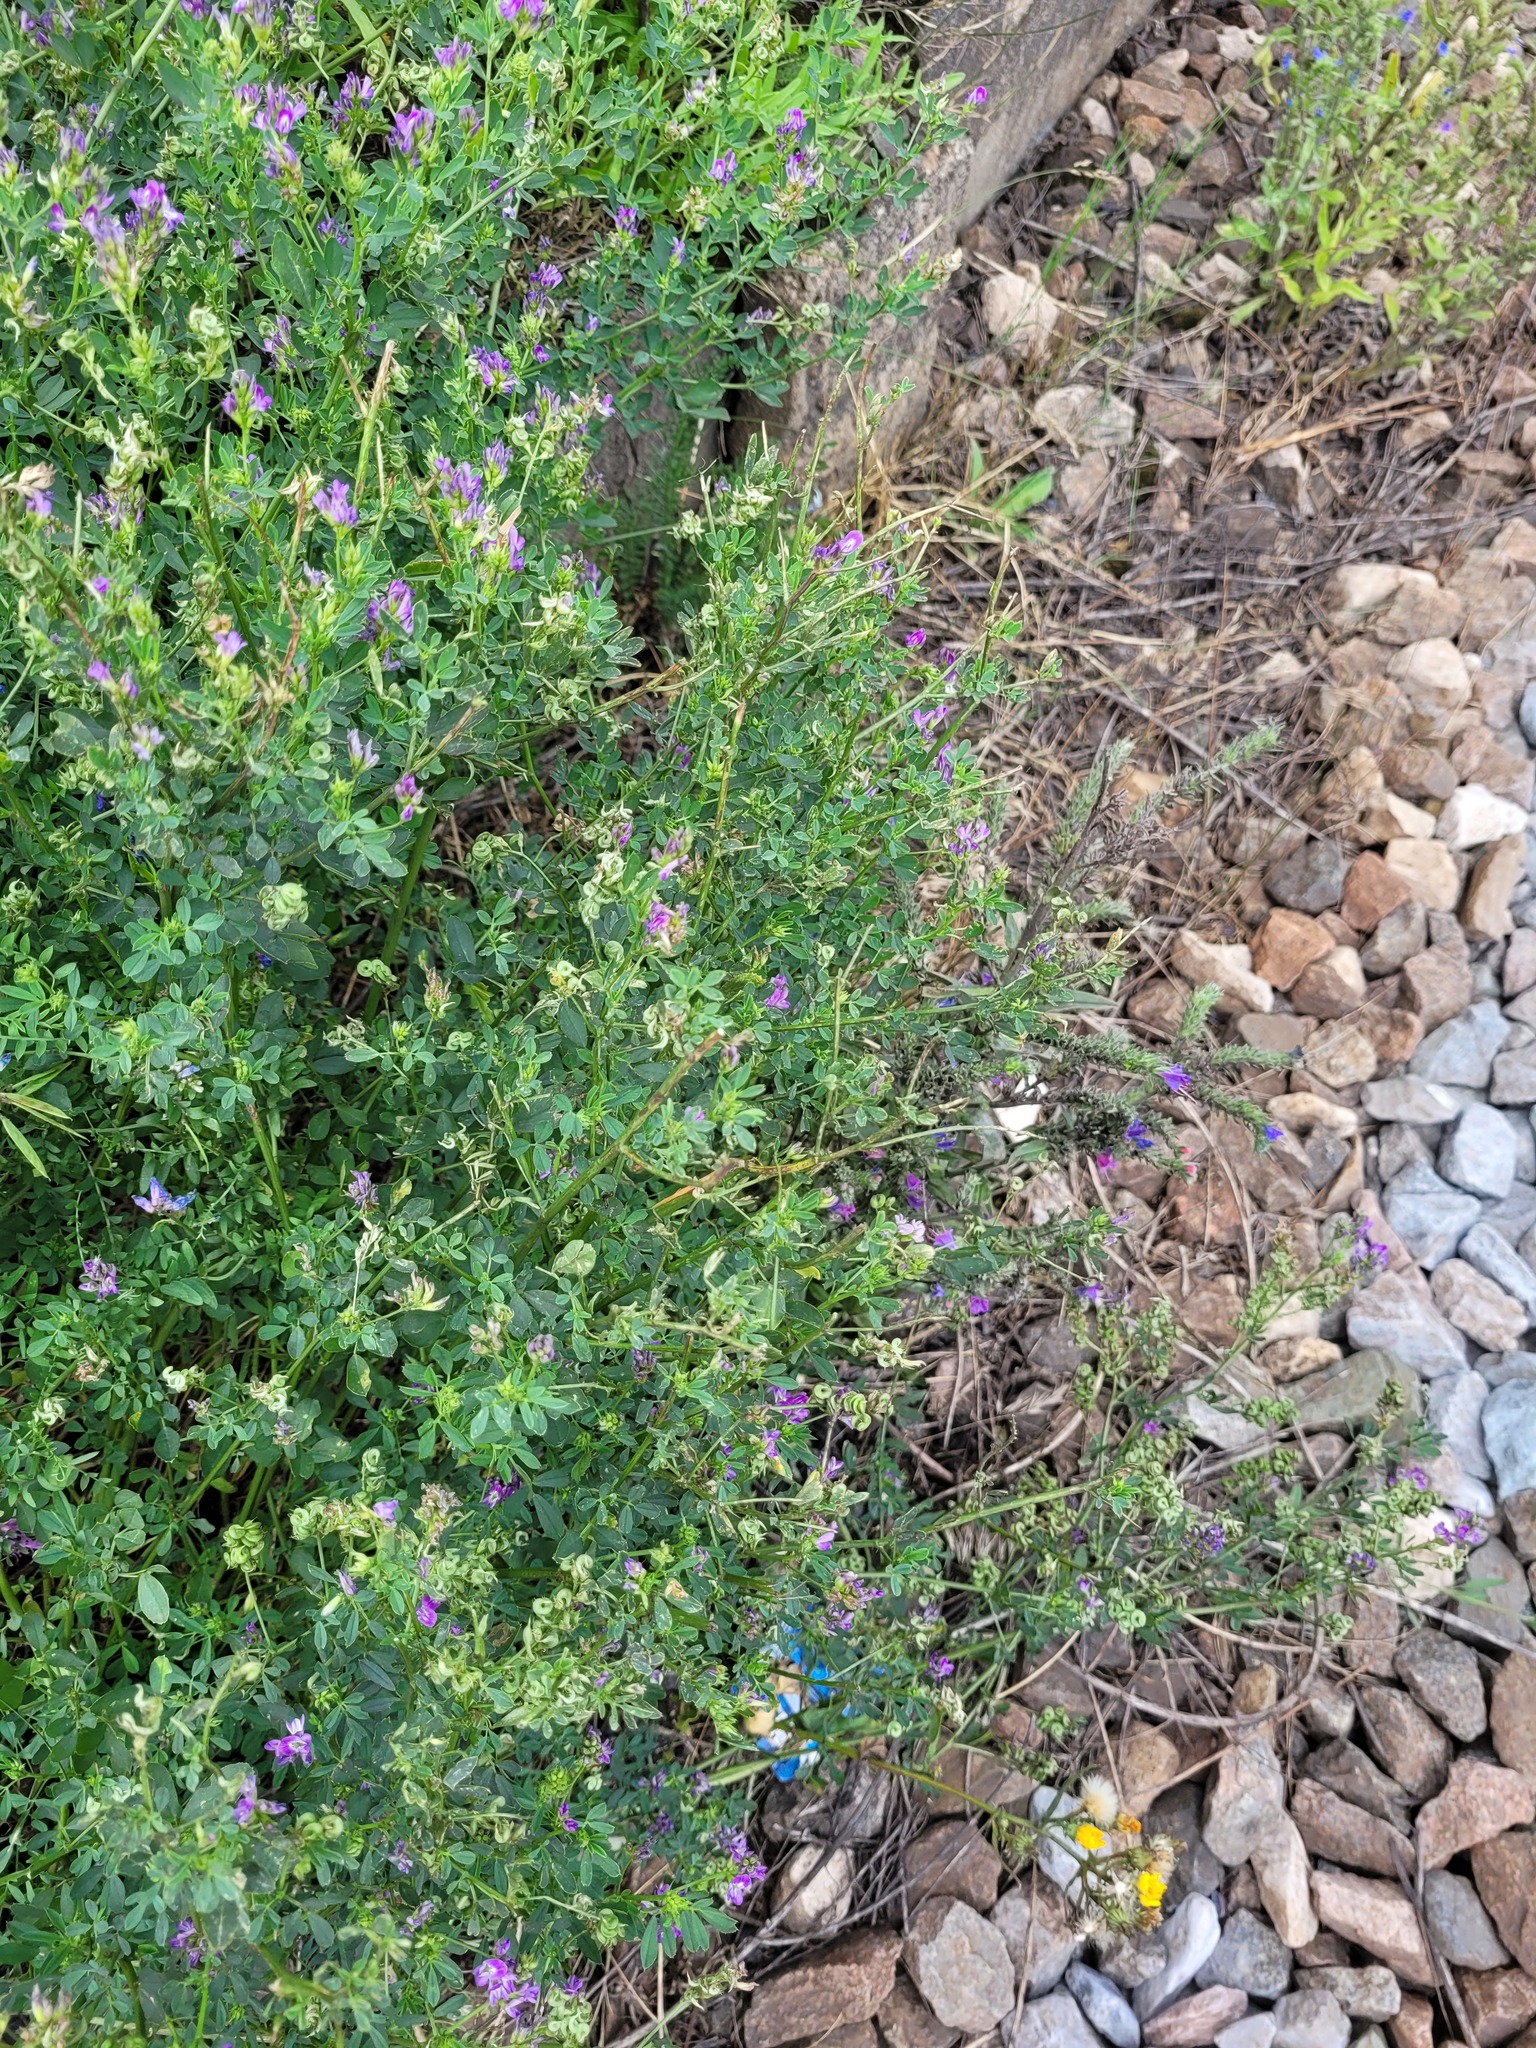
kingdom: Plantae
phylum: Tracheophyta
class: Magnoliopsida
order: Fabales
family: Fabaceae
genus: Medicago
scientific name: Medicago sativa
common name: Alfalfa
